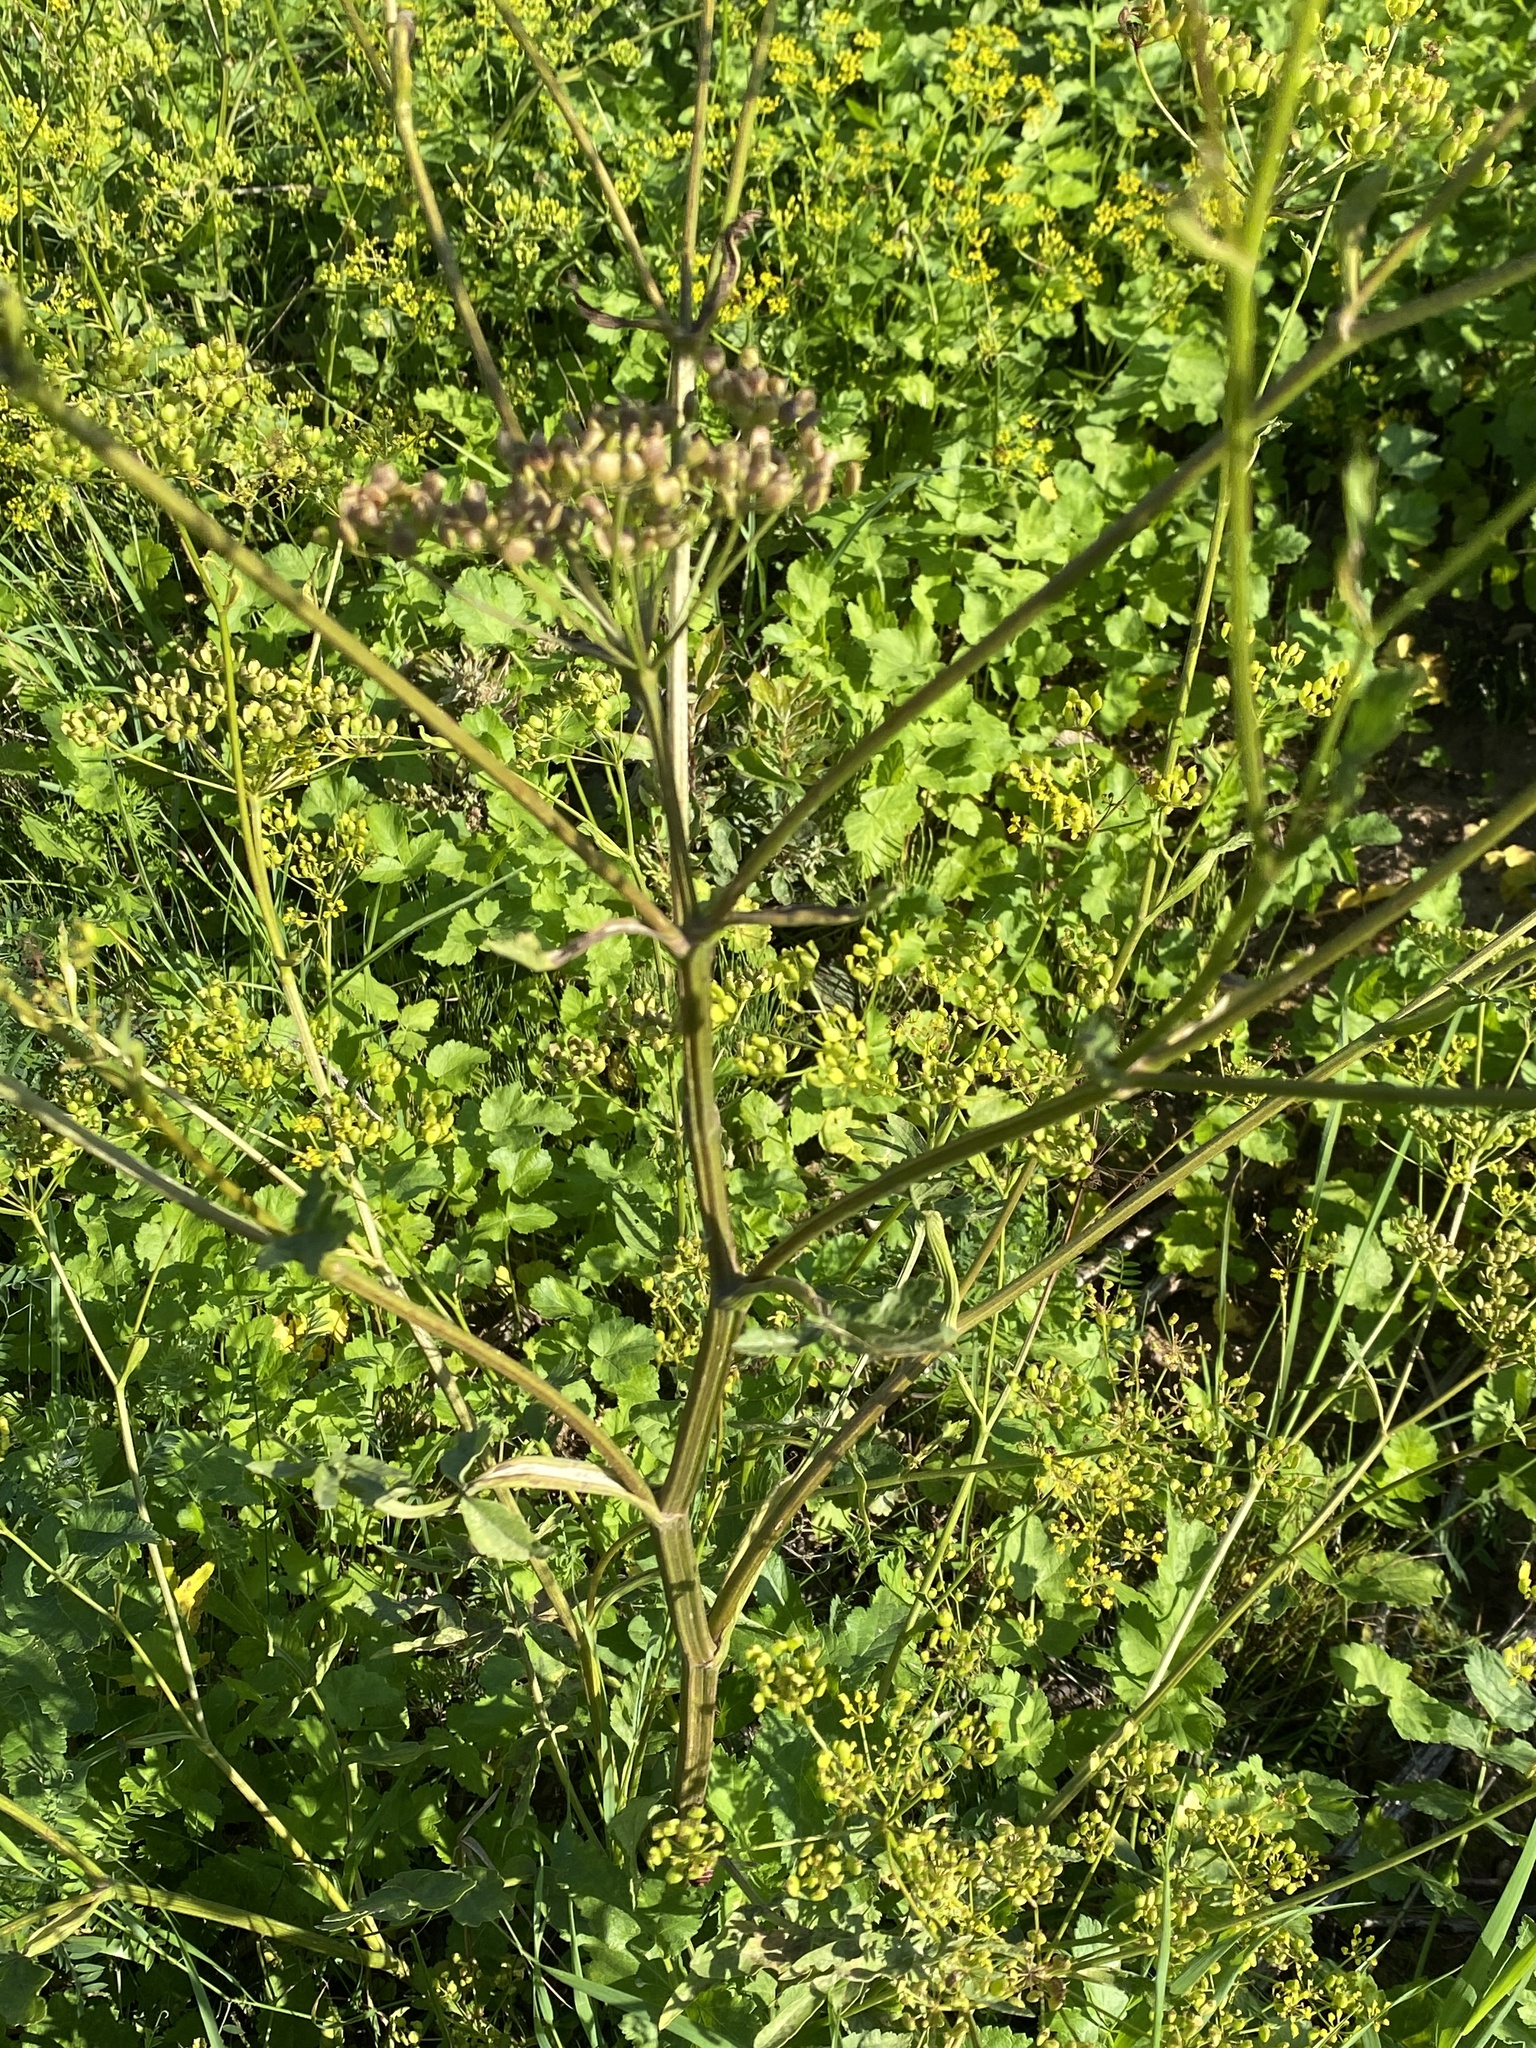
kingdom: Plantae
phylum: Tracheophyta
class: Magnoliopsida
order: Apiales
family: Apiaceae
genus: Pastinaca
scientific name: Pastinaca sativa
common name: Wild parsnip
